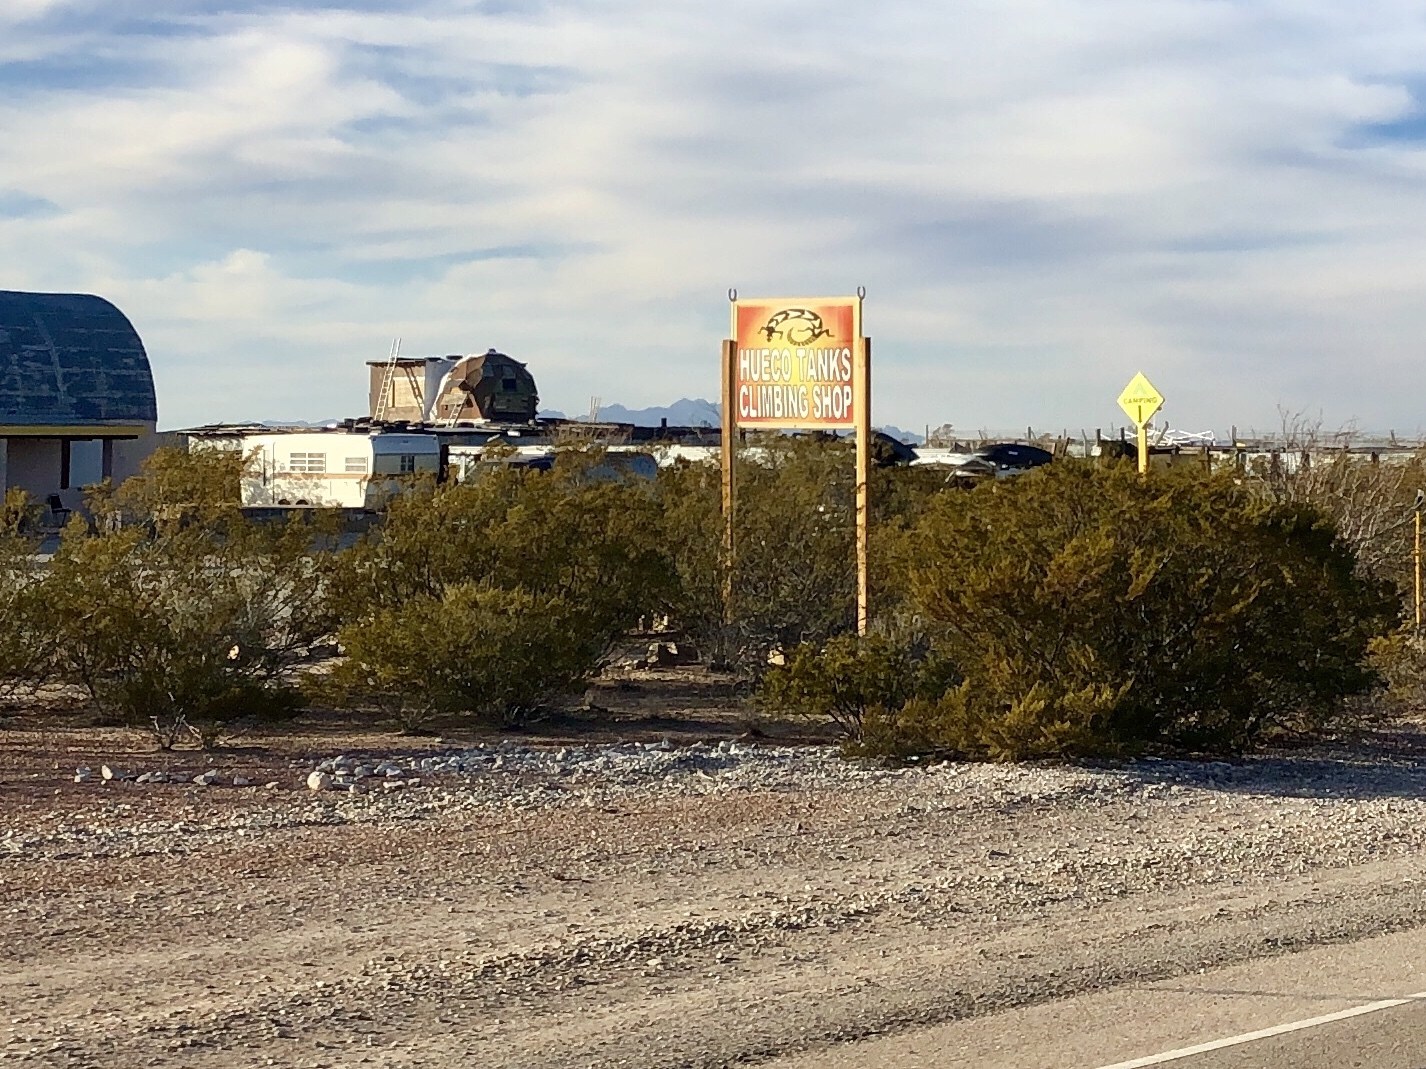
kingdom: Plantae
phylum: Tracheophyta
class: Magnoliopsida
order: Zygophyllales
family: Zygophyllaceae
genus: Larrea
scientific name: Larrea tridentata
